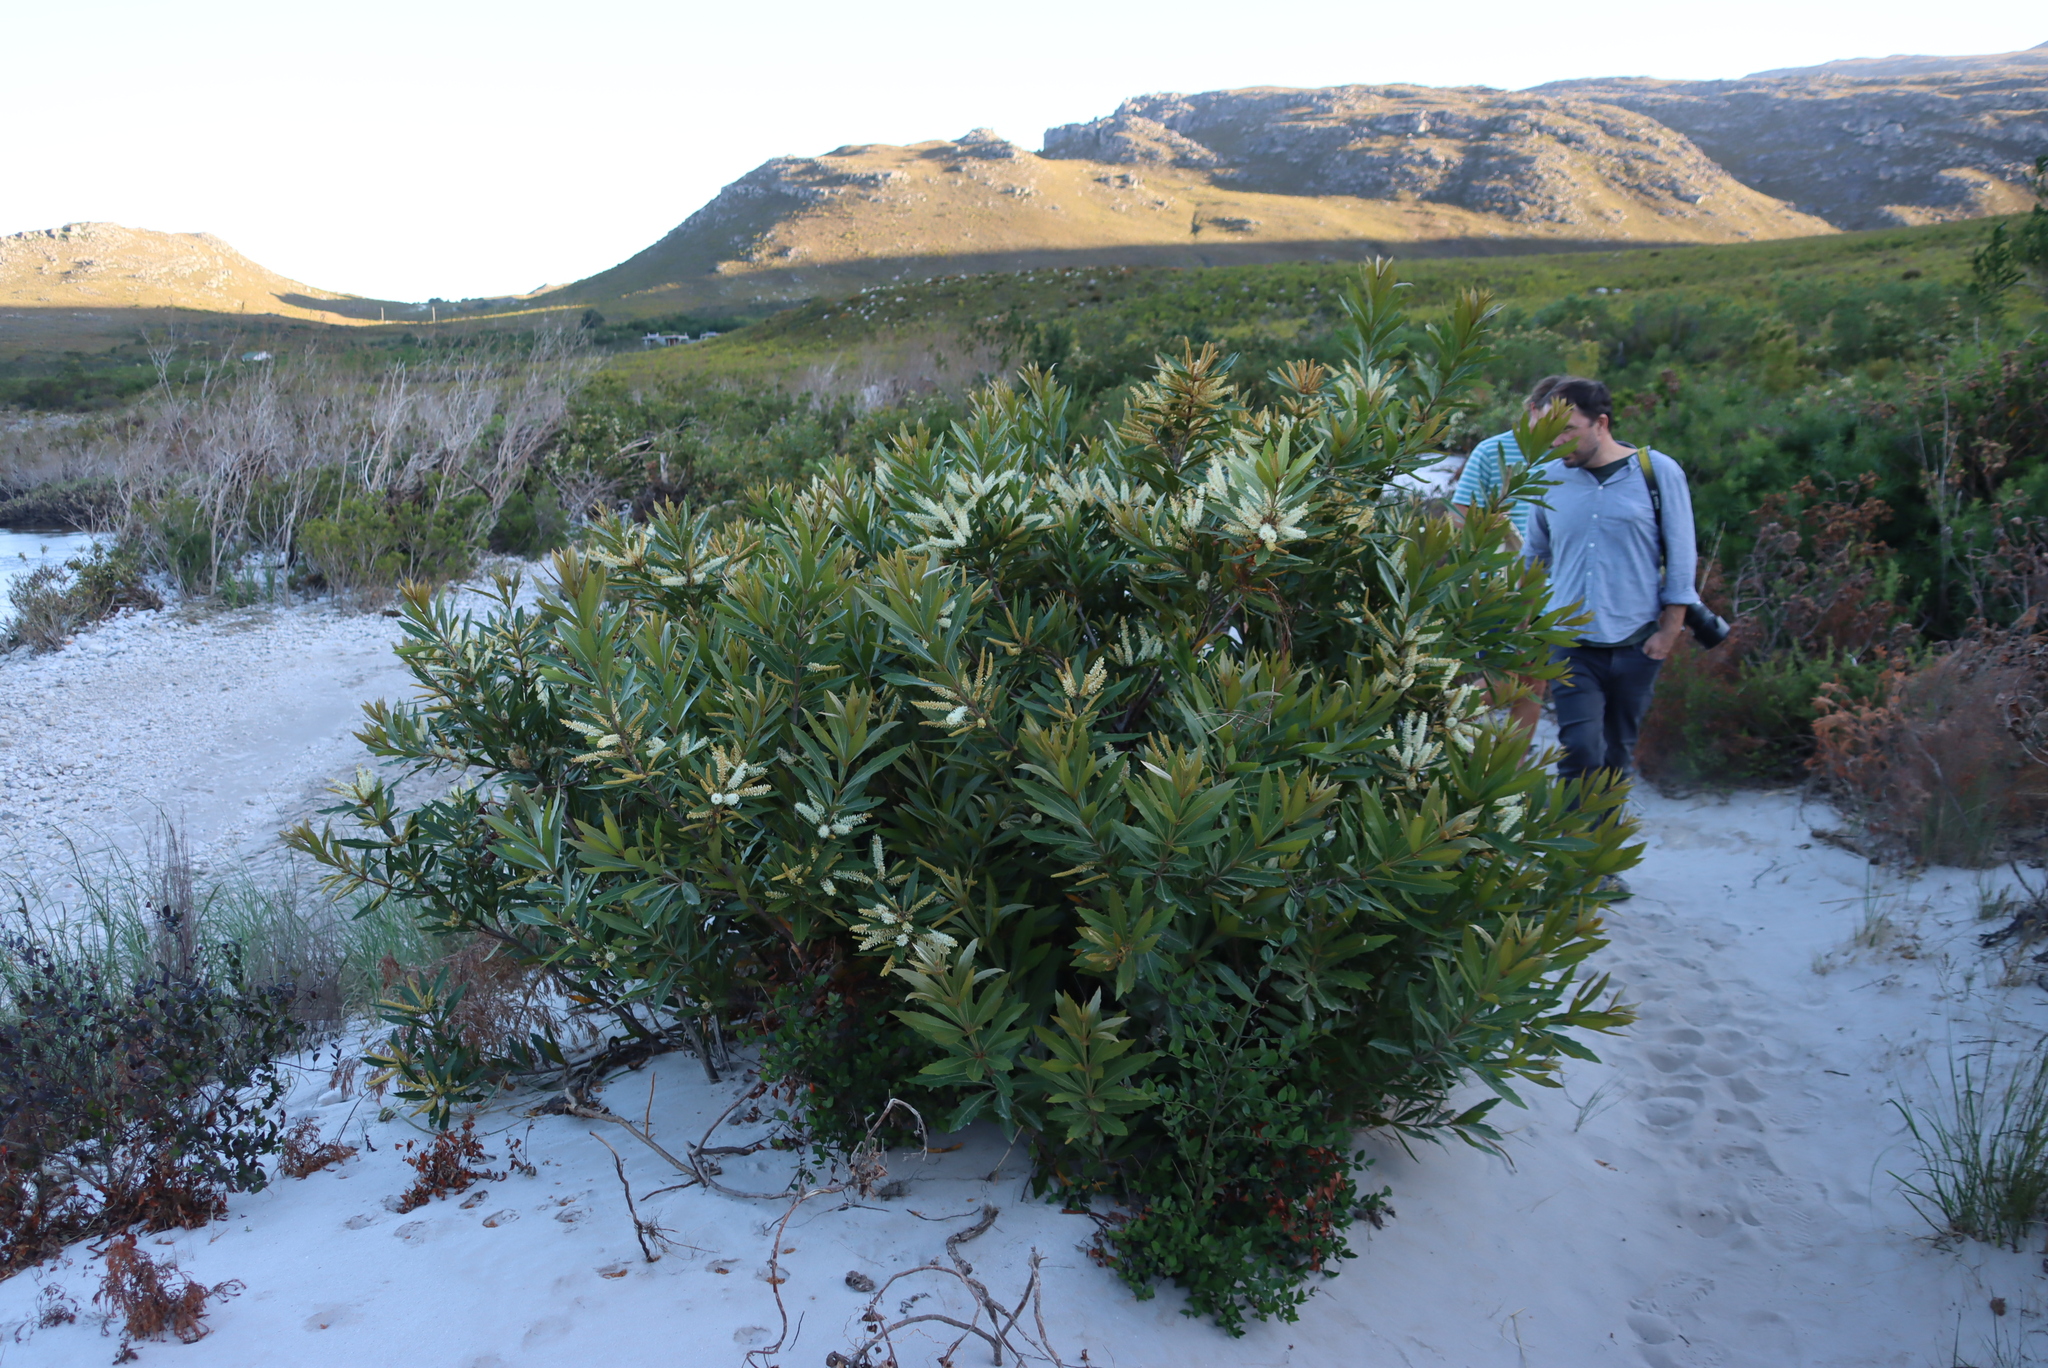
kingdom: Plantae
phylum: Tracheophyta
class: Magnoliopsida
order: Proteales
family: Proteaceae
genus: Brabejum
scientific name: Brabejum stellatifolium
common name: Wild almond
